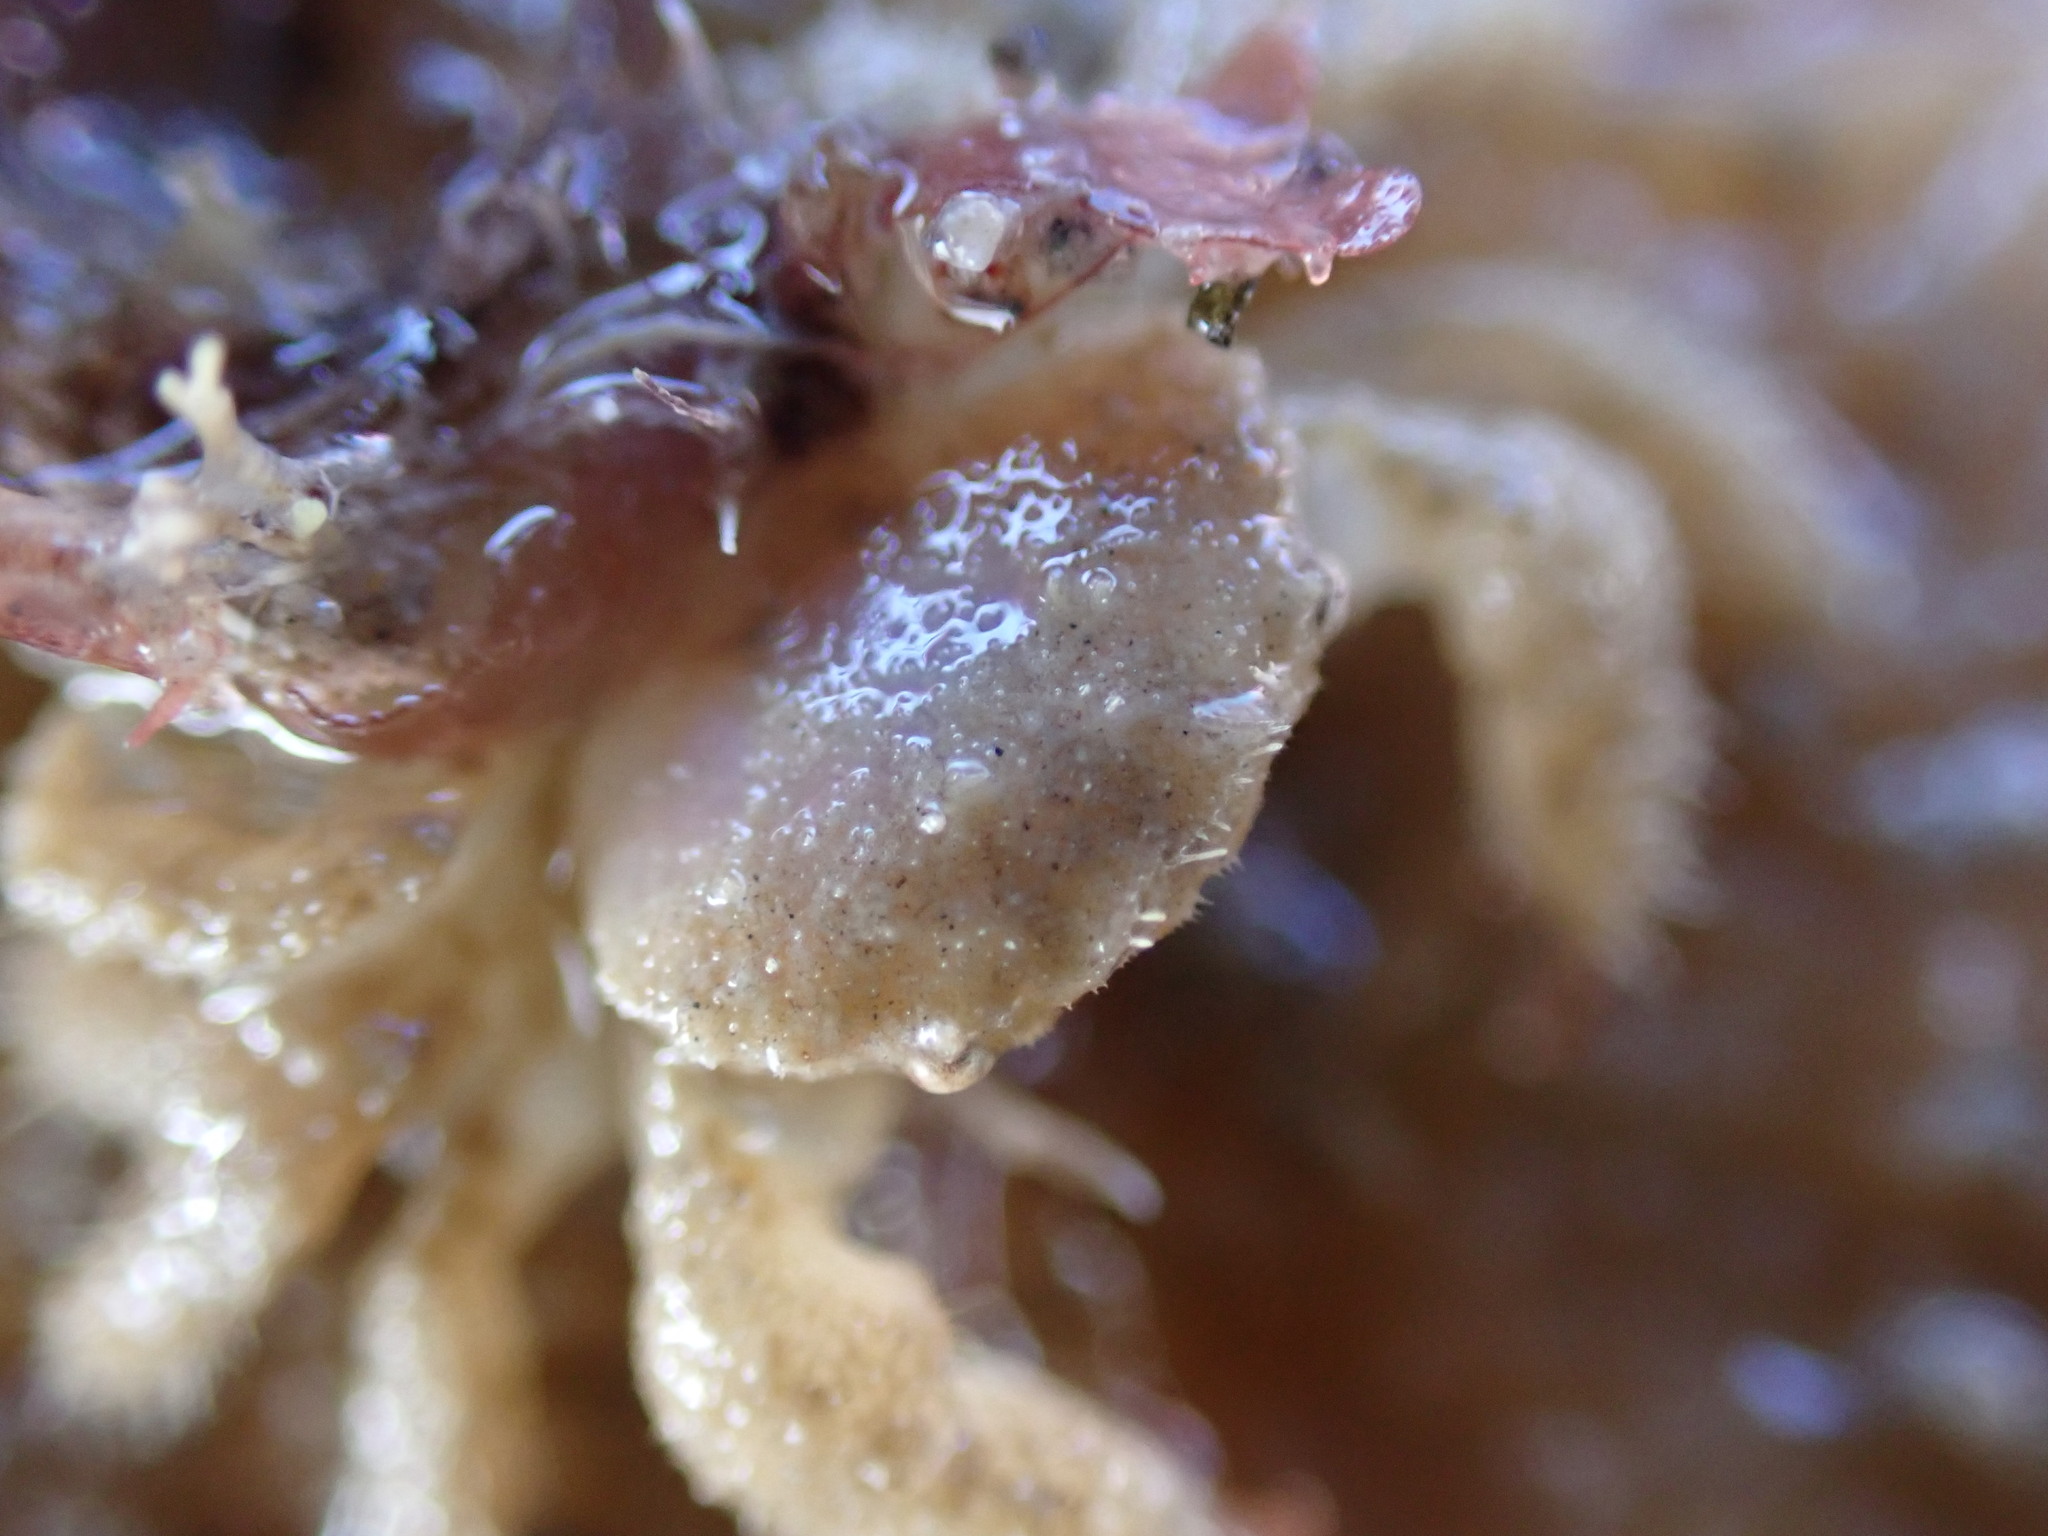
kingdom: Animalia
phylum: Arthropoda
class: Malacostraca
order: Decapoda
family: Pilumnidae
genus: Pilumnus
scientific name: Pilumnus lumpinus
